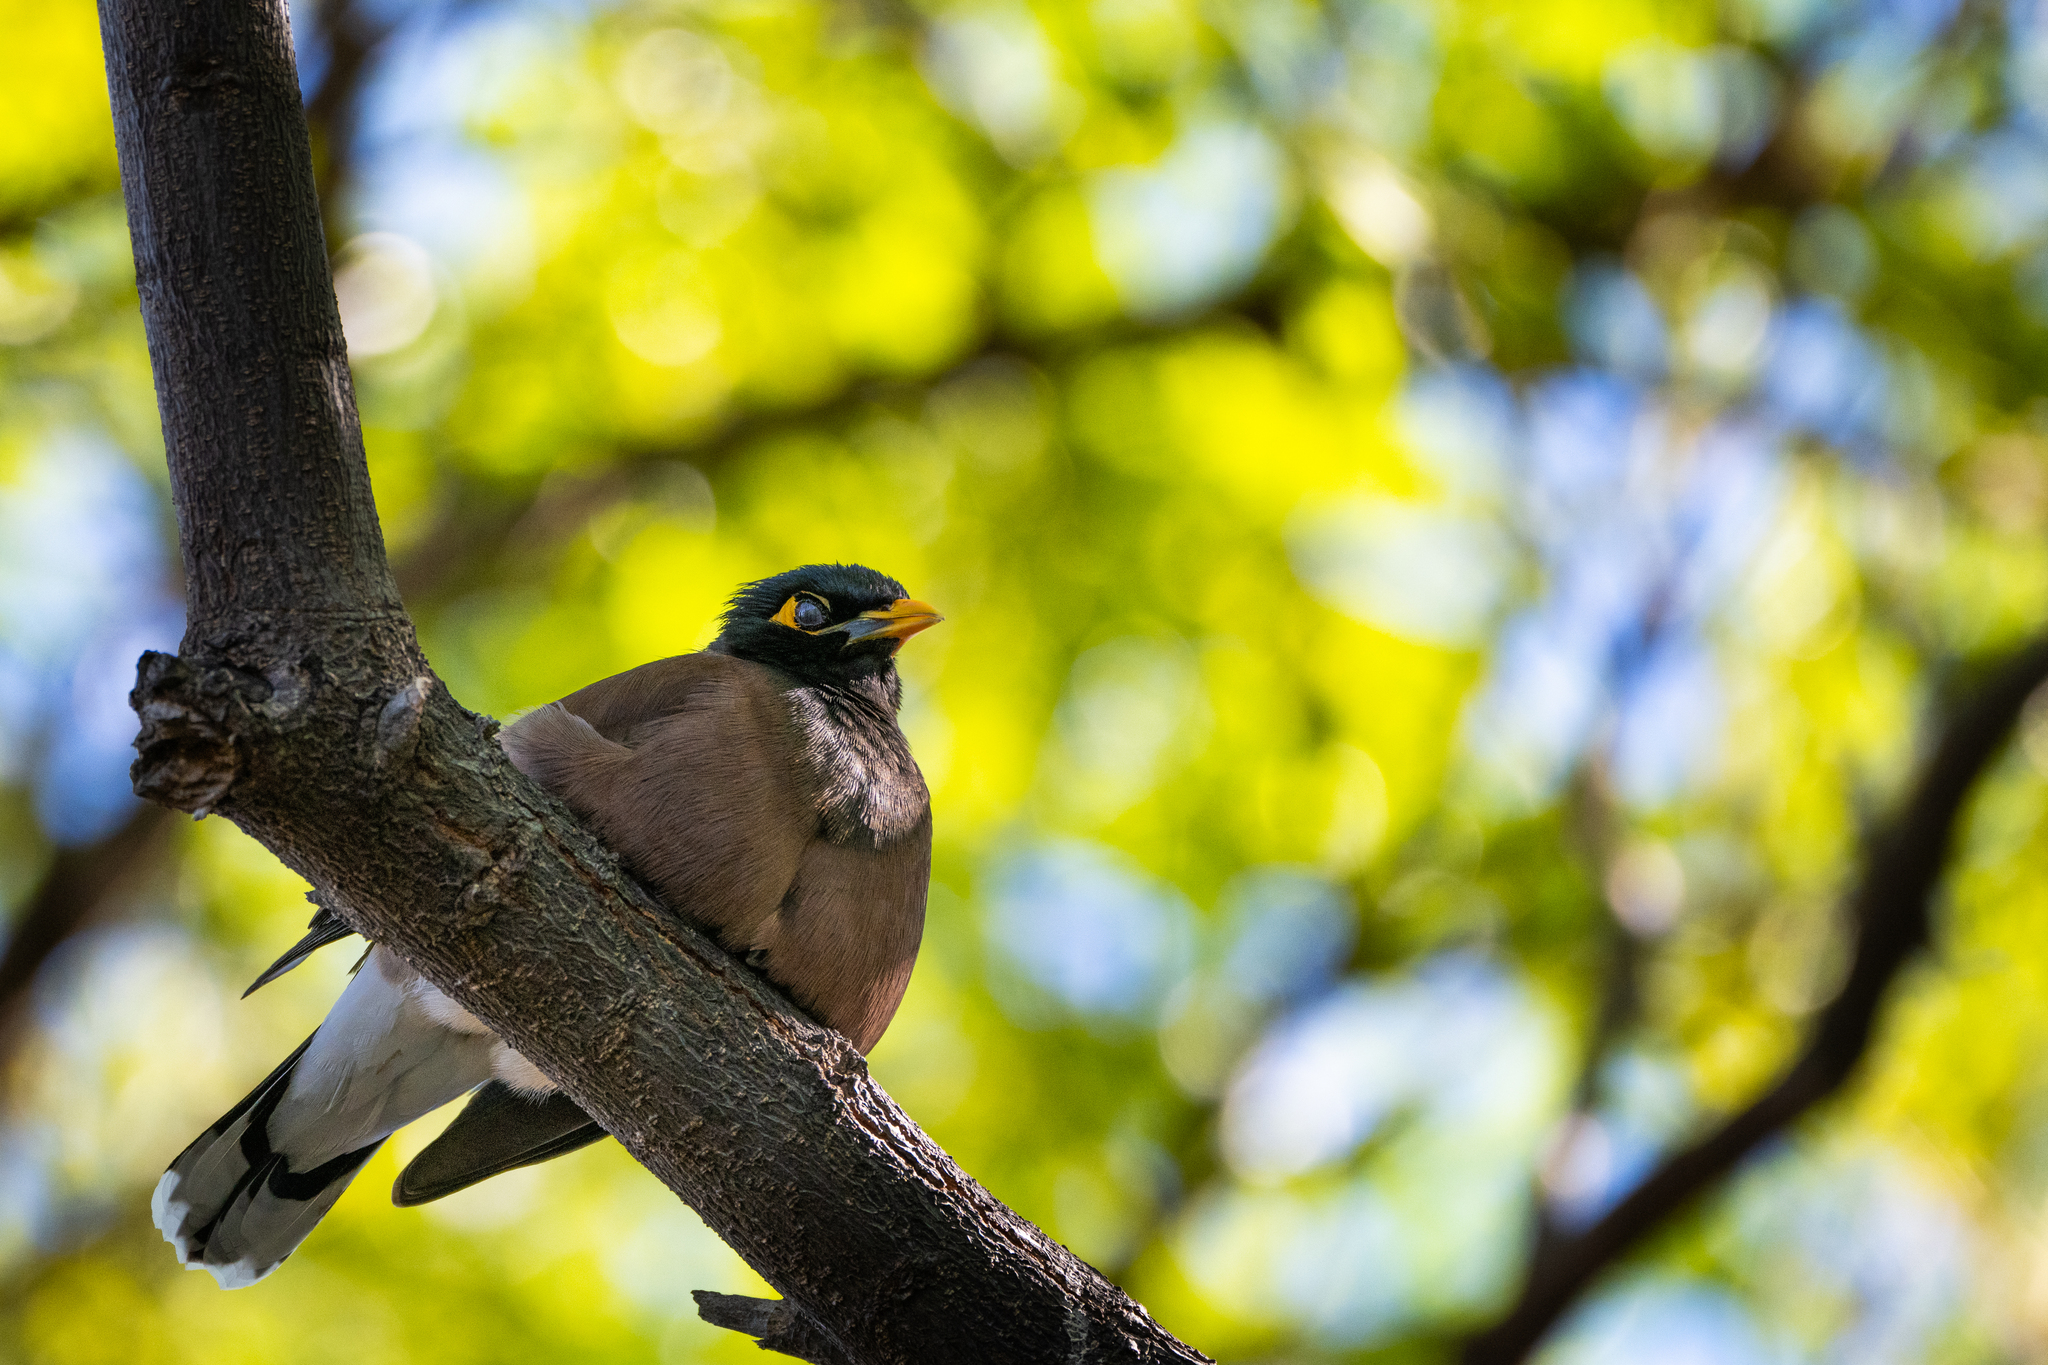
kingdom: Animalia
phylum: Chordata
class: Aves
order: Passeriformes
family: Sturnidae
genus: Acridotheres
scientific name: Acridotheres tristis
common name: Common myna
